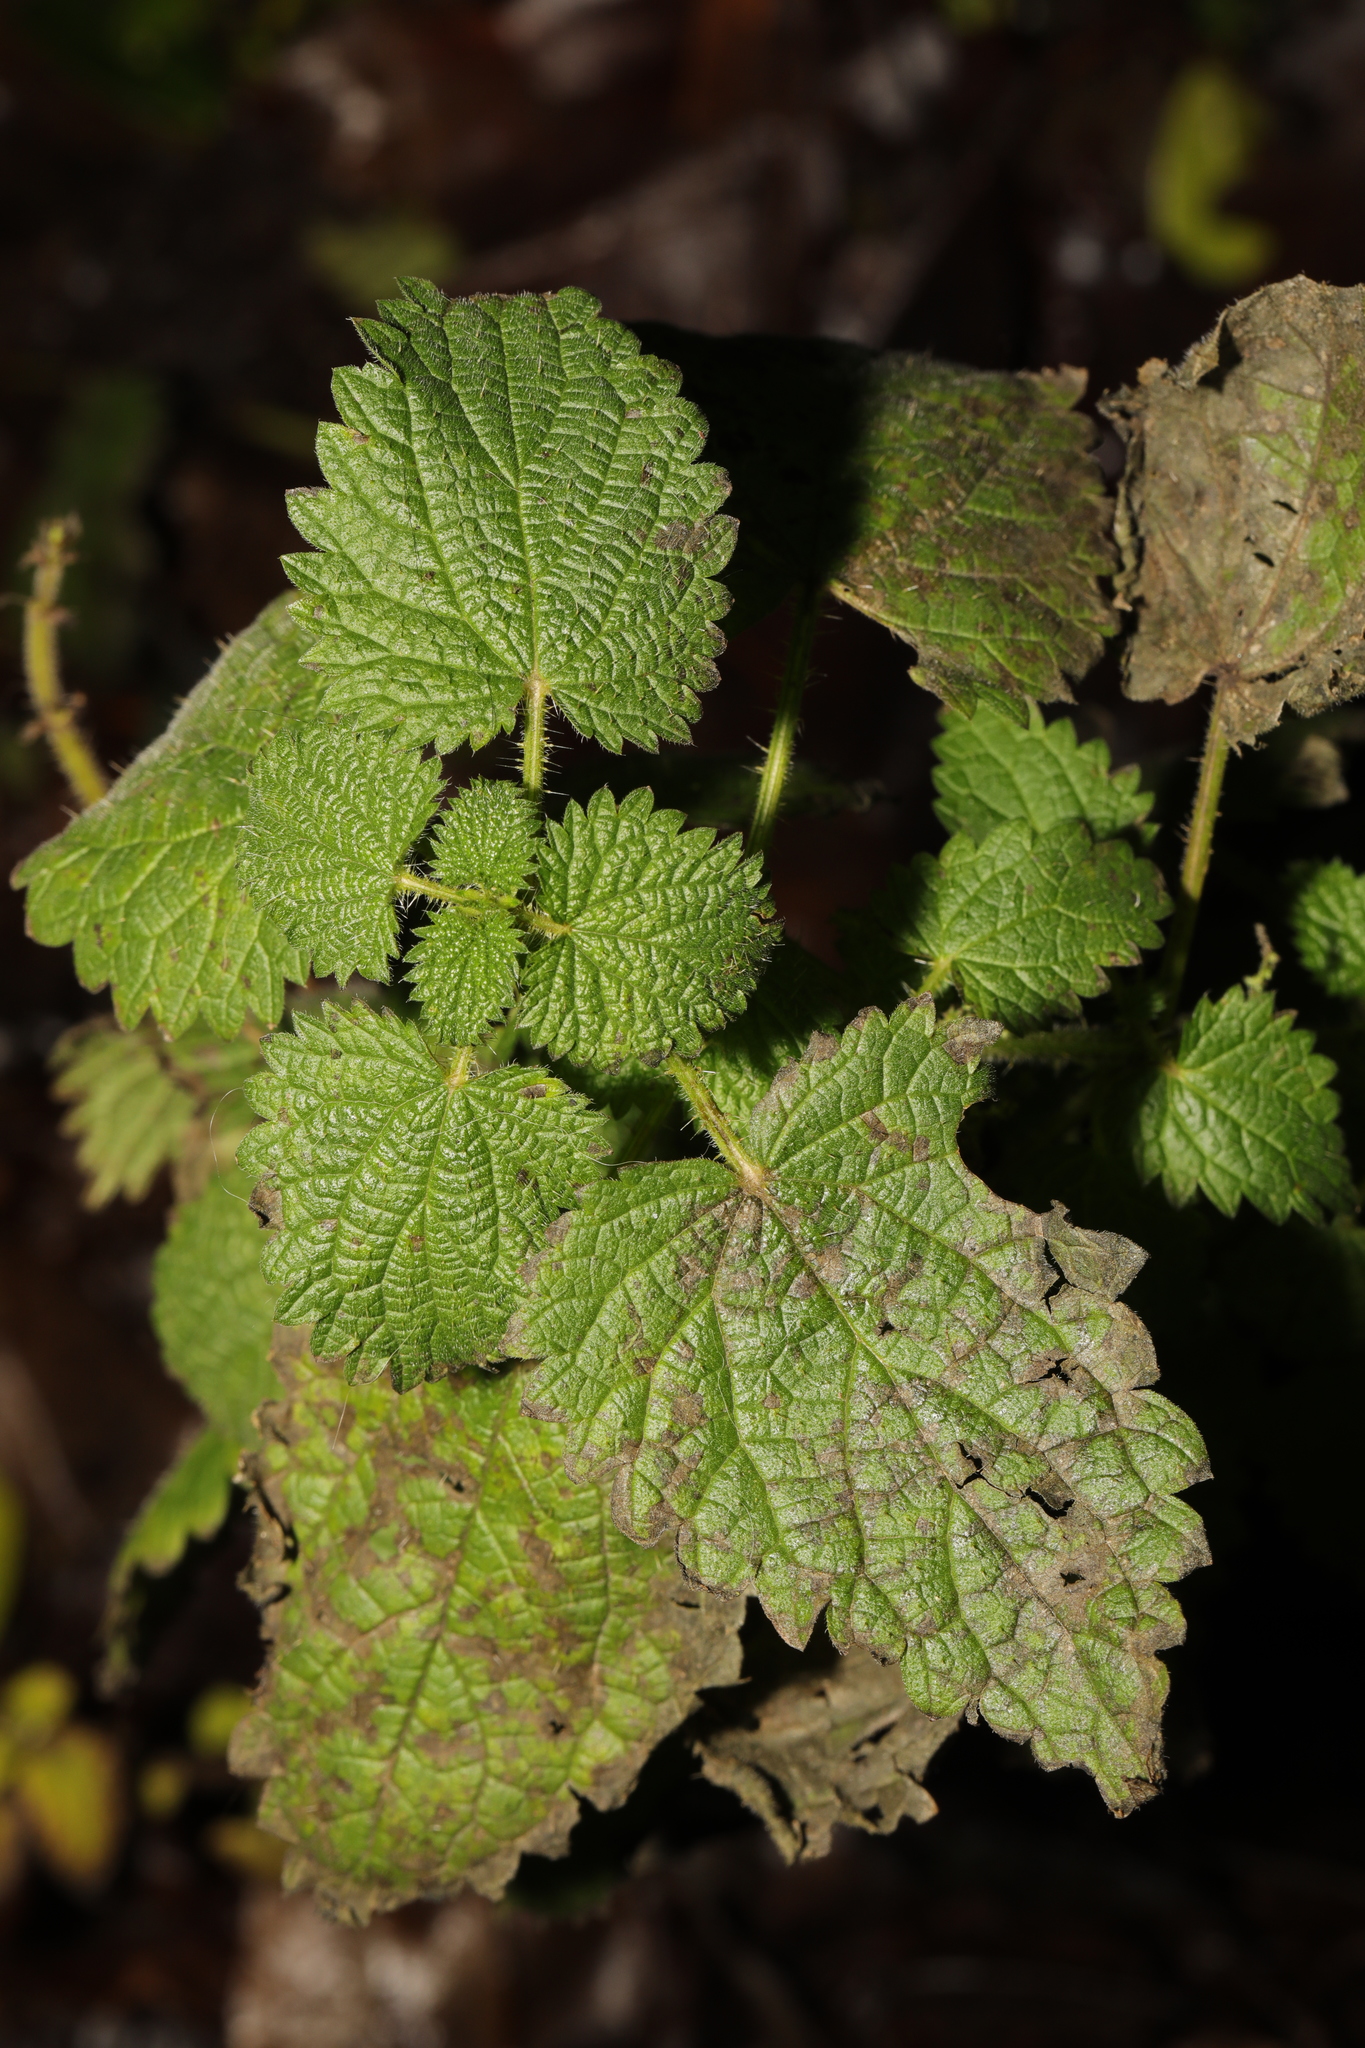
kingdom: Plantae
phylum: Tracheophyta
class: Magnoliopsida
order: Rosales
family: Urticaceae
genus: Urtica
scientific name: Urtica dioica
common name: Common nettle
